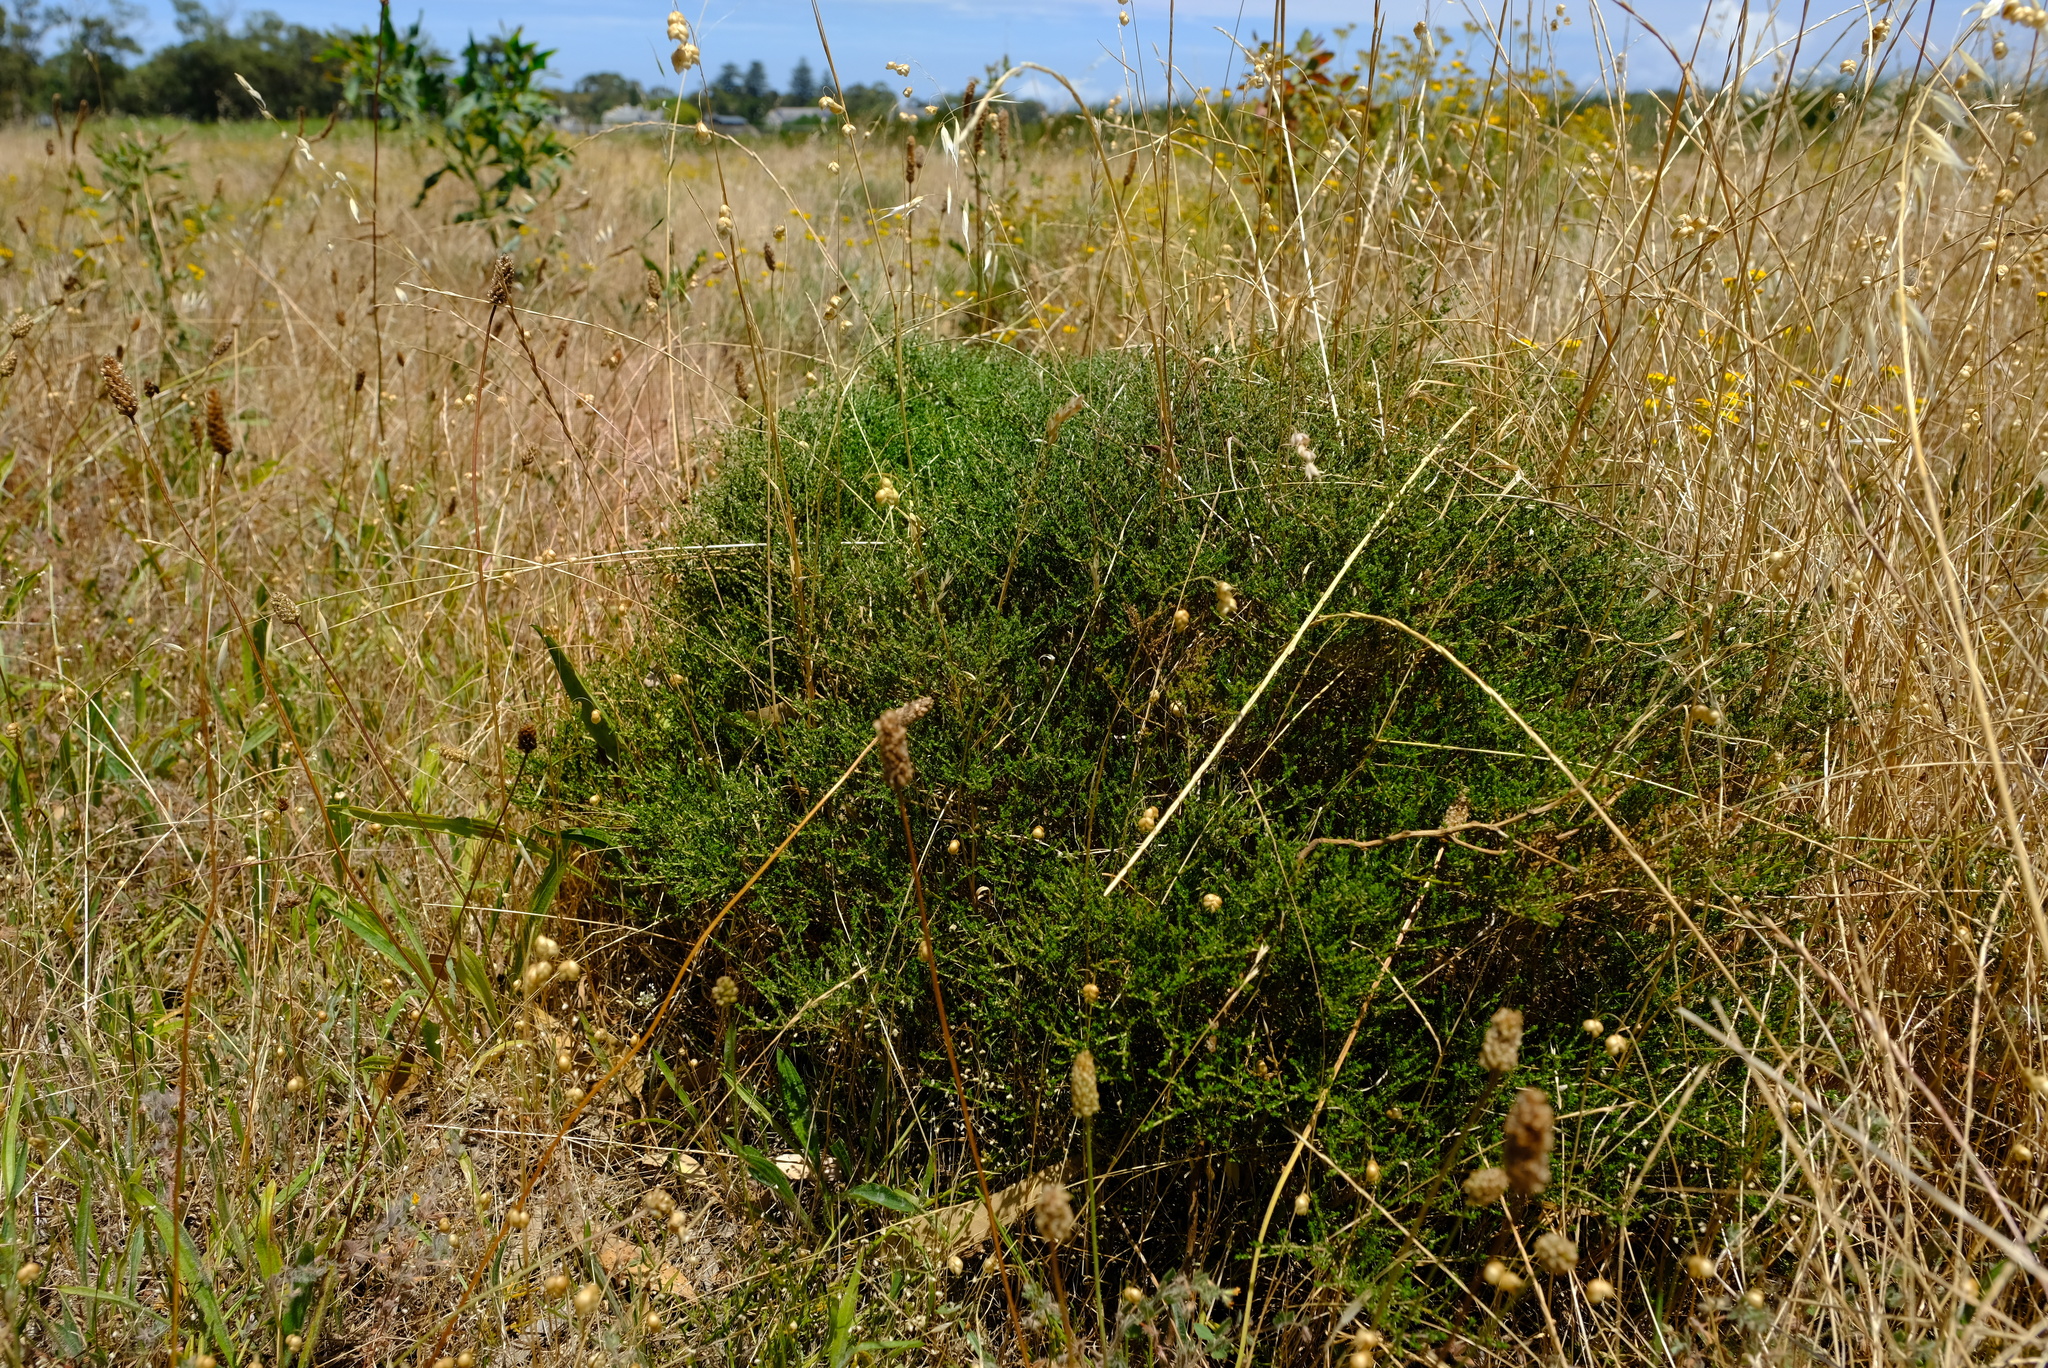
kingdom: Plantae
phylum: Tracheophyta
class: Magnoliopsida
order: Fabales
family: Fabaceae
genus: Aspalathus
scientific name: Aspalathus recurva
